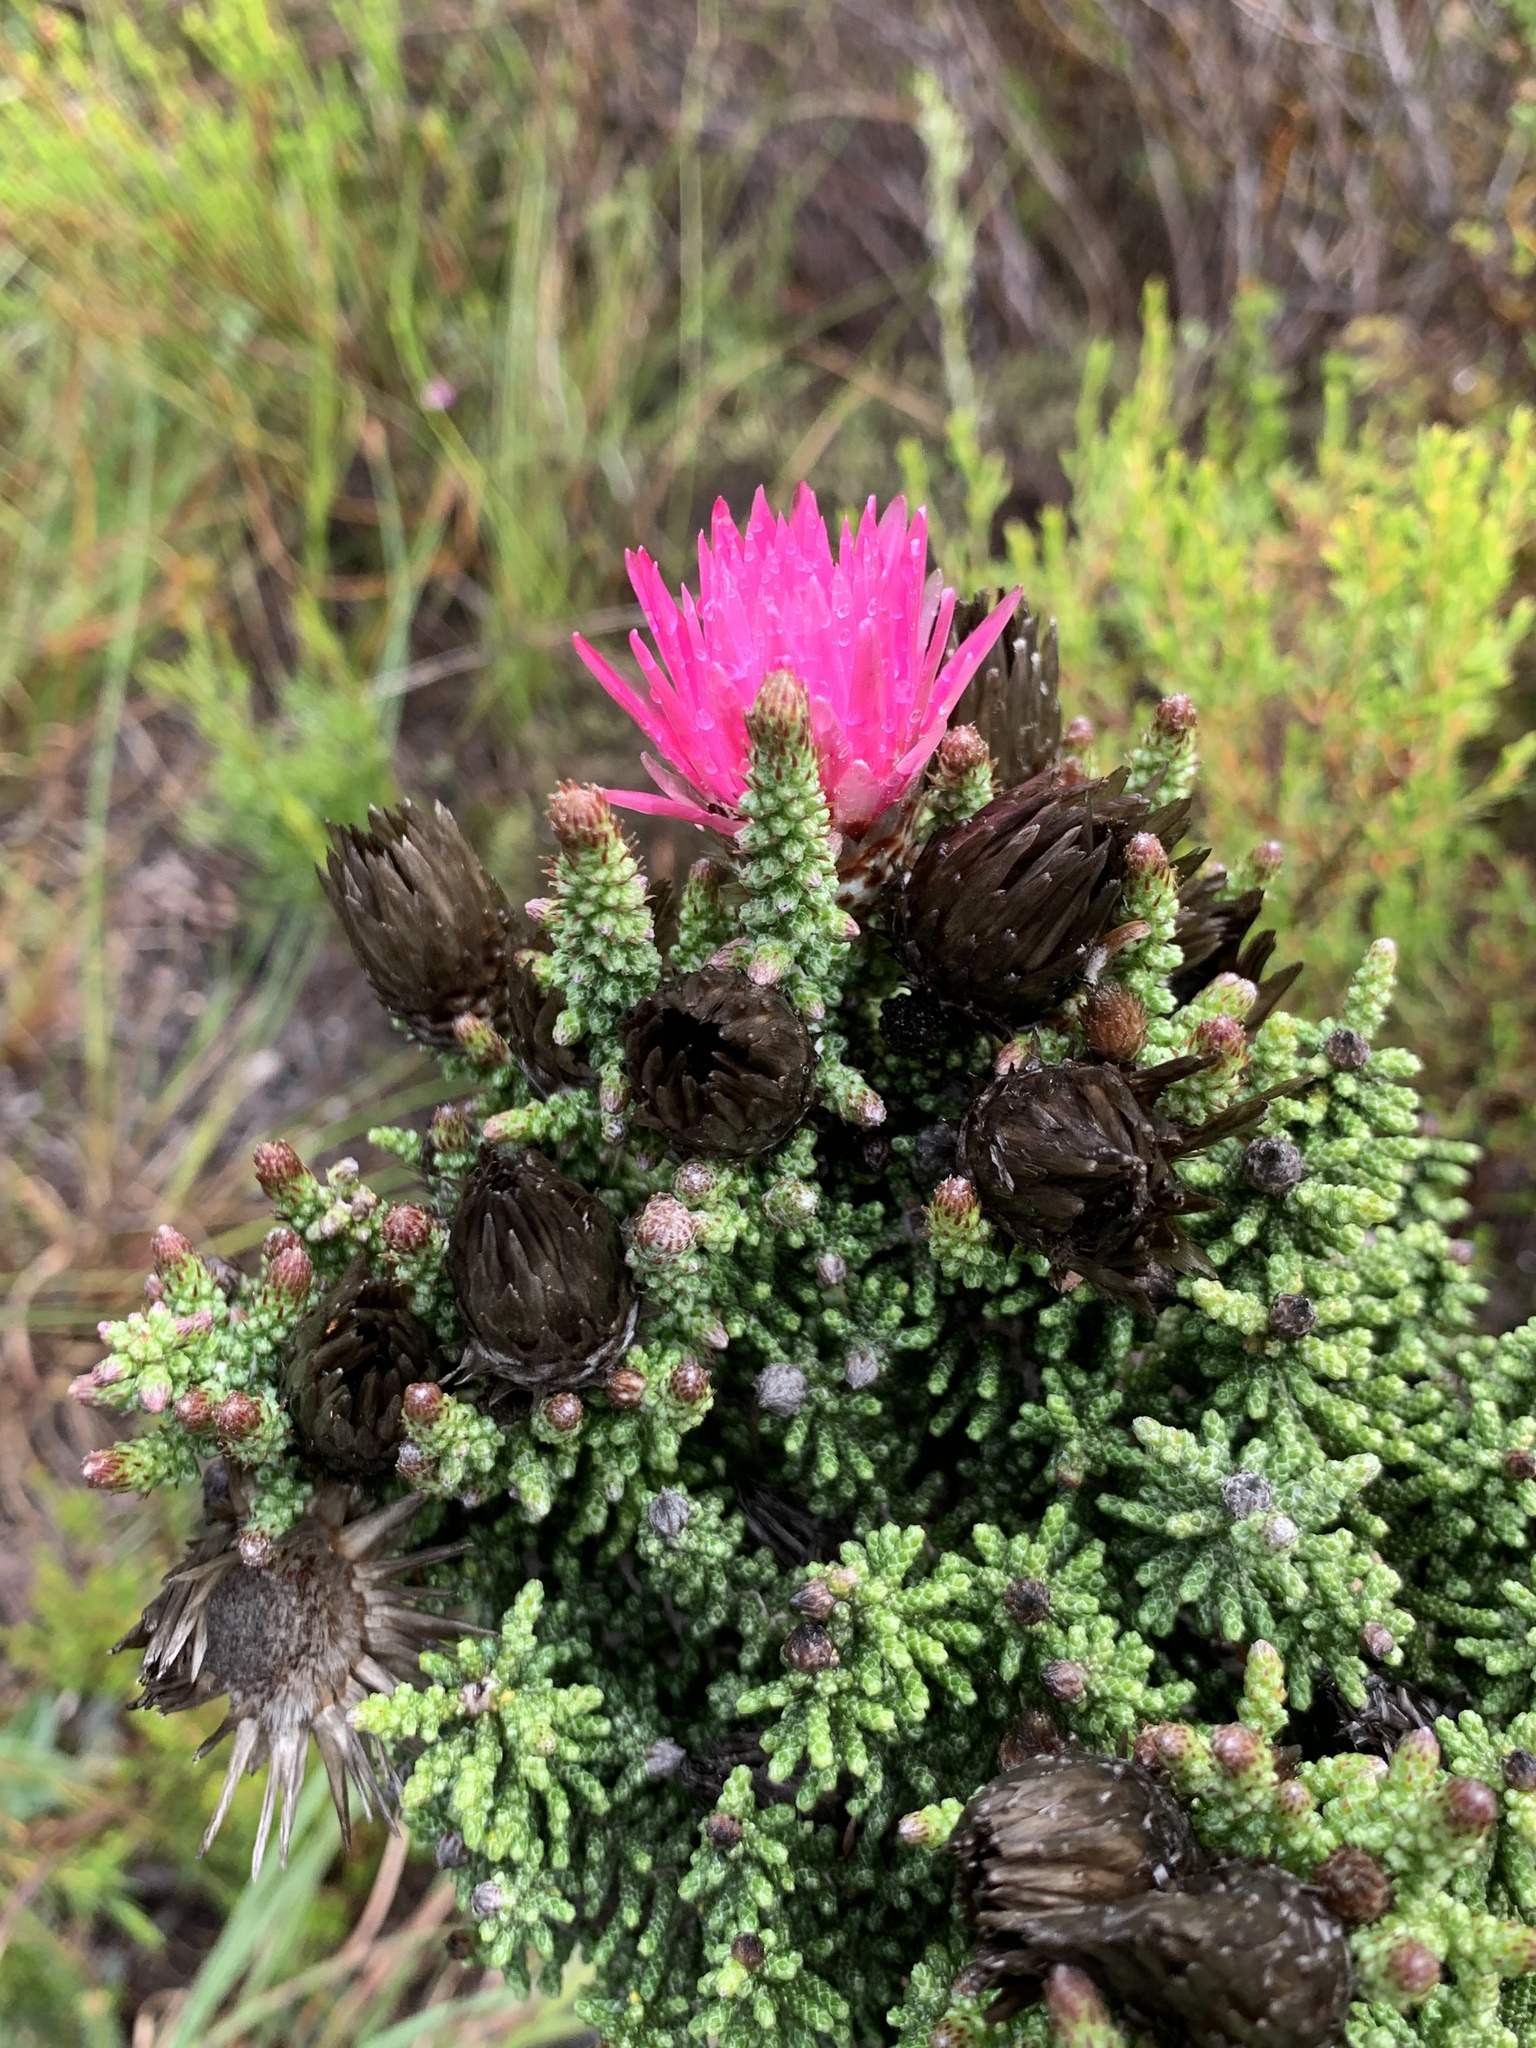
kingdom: Plantae
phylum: Tracheophyta
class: Magnoliopsida
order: Asterales
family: Asteraceae
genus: Phaenocoma
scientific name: Phaenocoma prolifera
